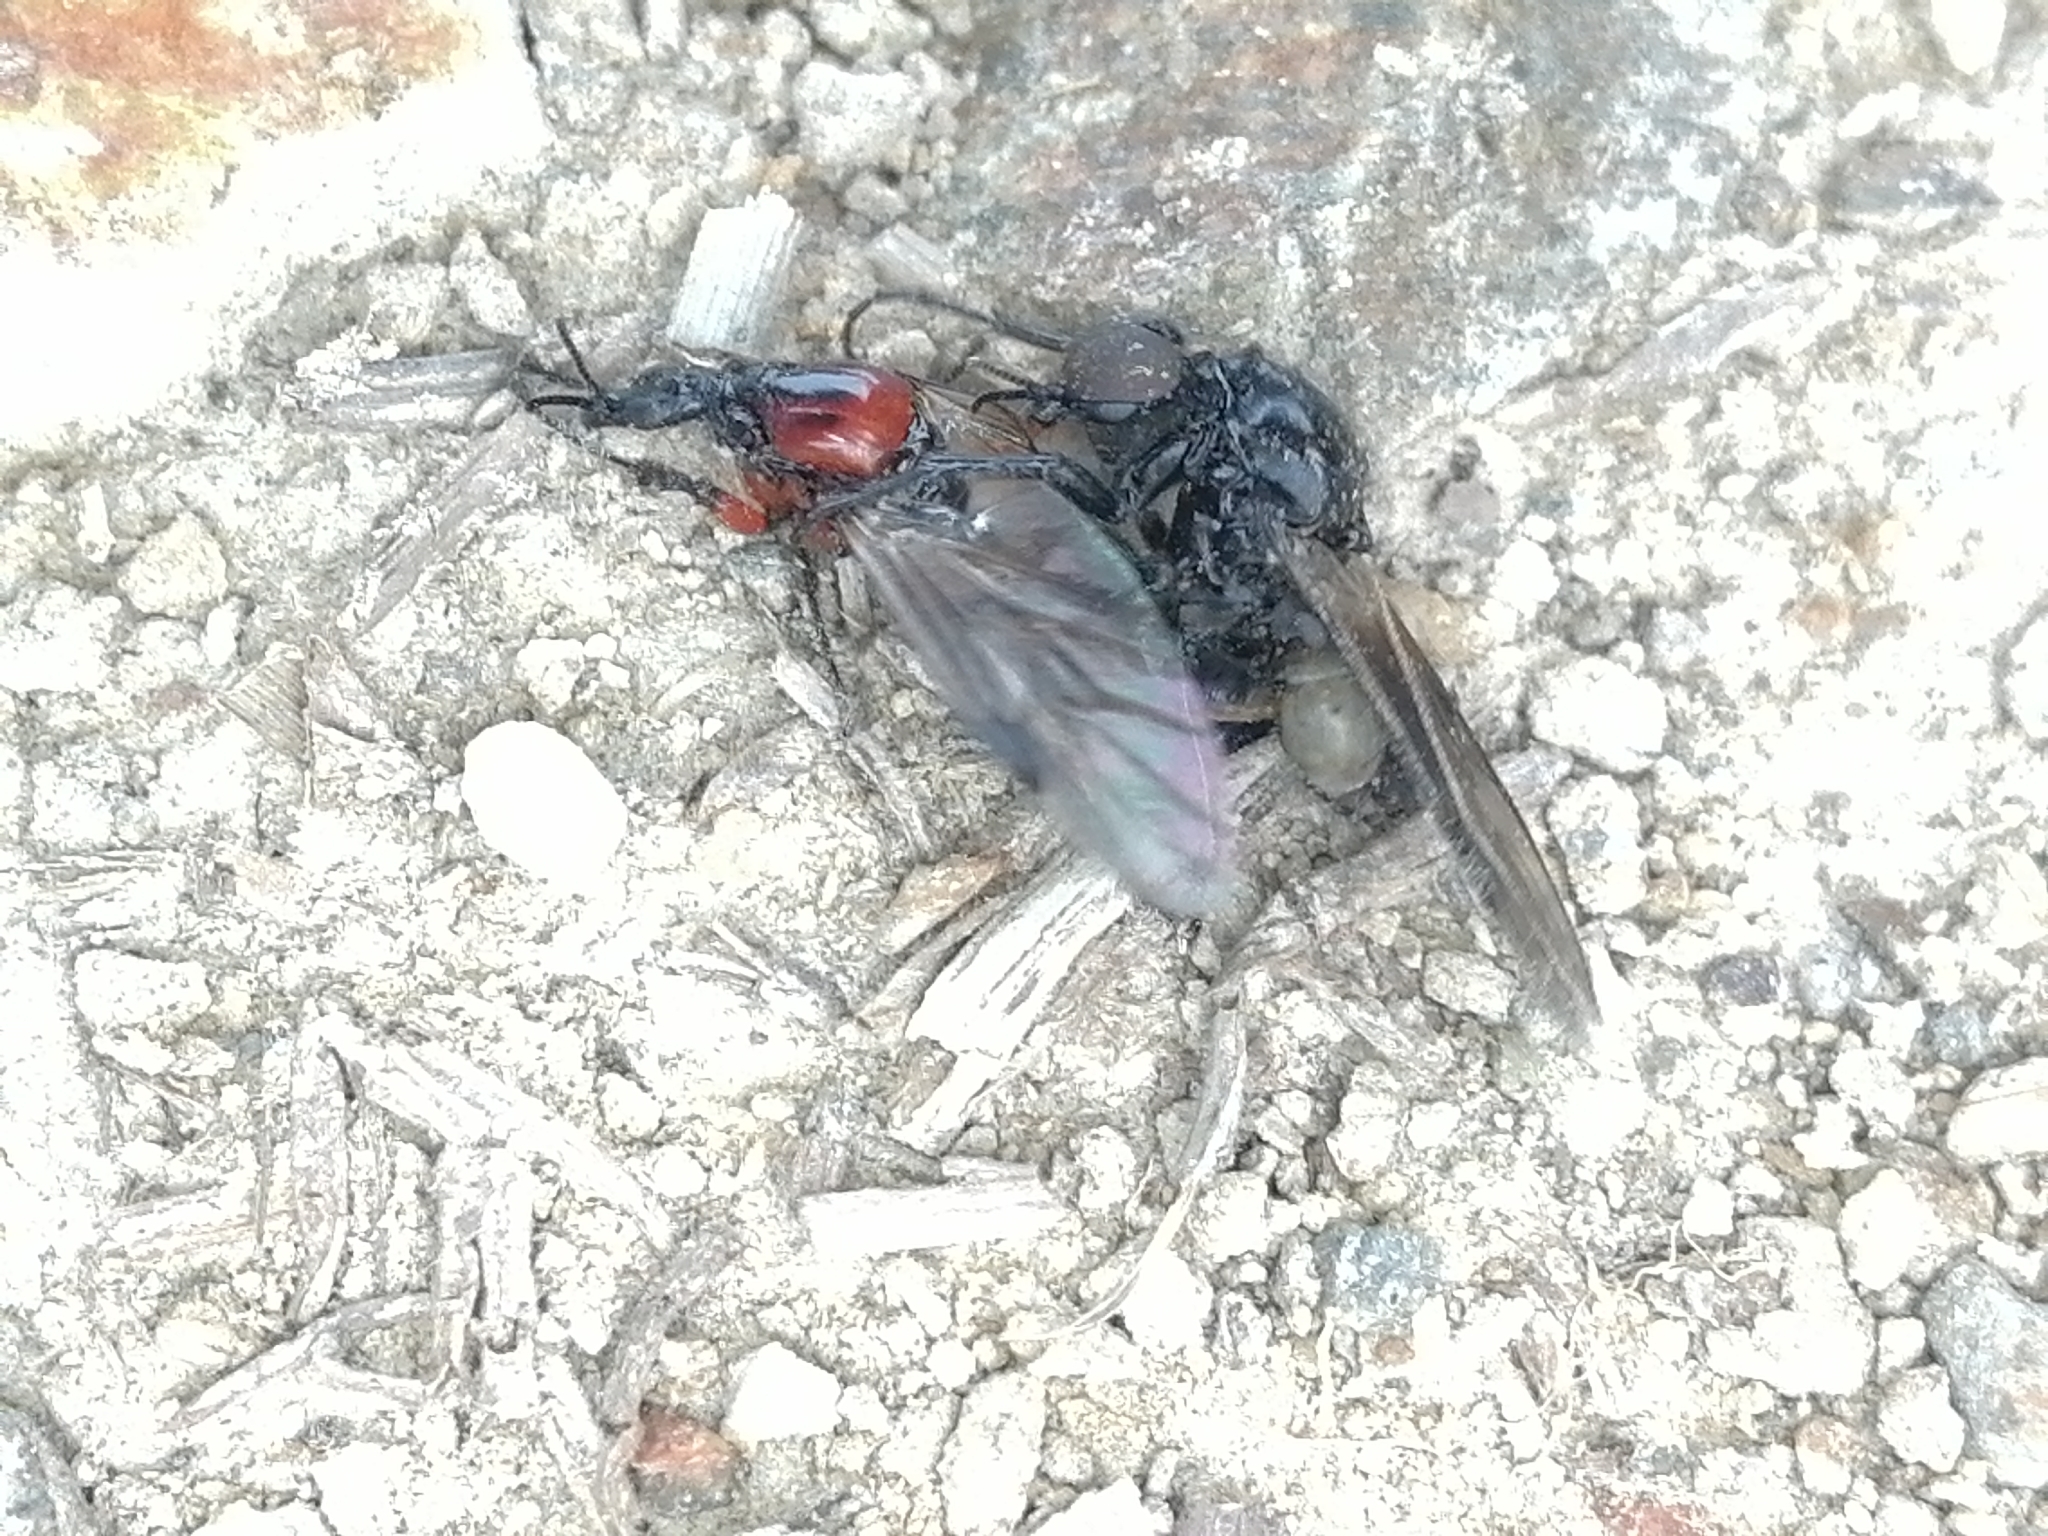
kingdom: Animalia
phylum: Arthropoda
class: Insecta
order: Diptera
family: Bibionidae
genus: Dilophus
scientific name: Dilophus nigrostigma
